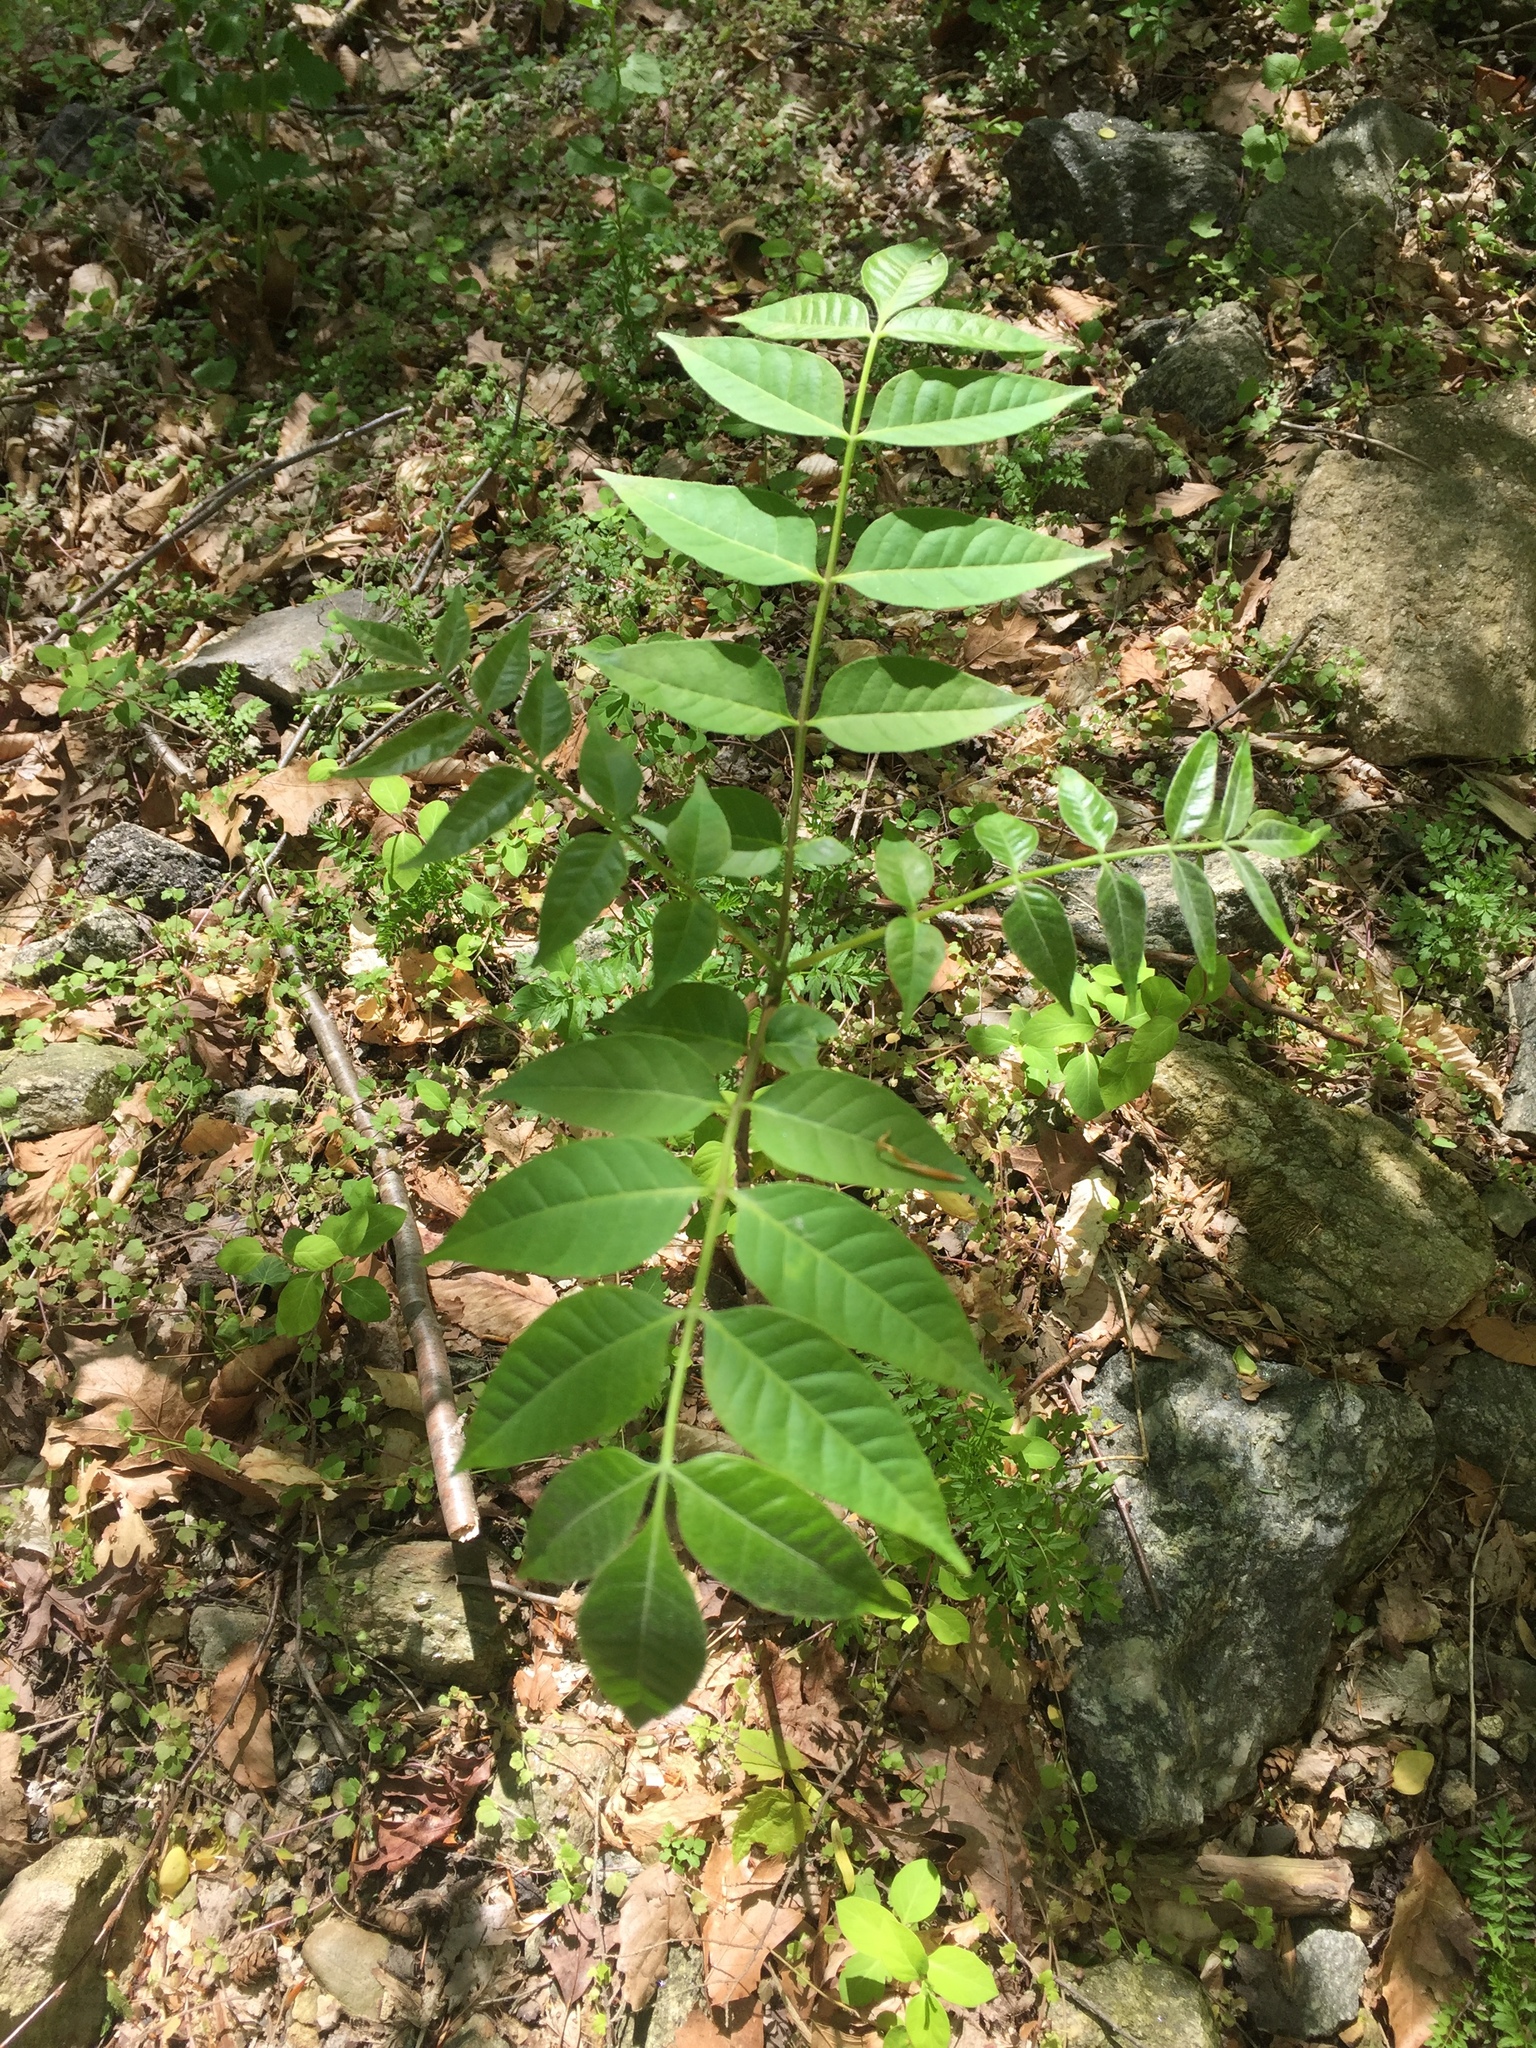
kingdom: Plantae
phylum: Tracheophyta
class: Magnoliopsida
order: Sapindales
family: Rutaceae
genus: Phellodendron
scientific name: Phellodendron amurense
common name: Amur corktree
